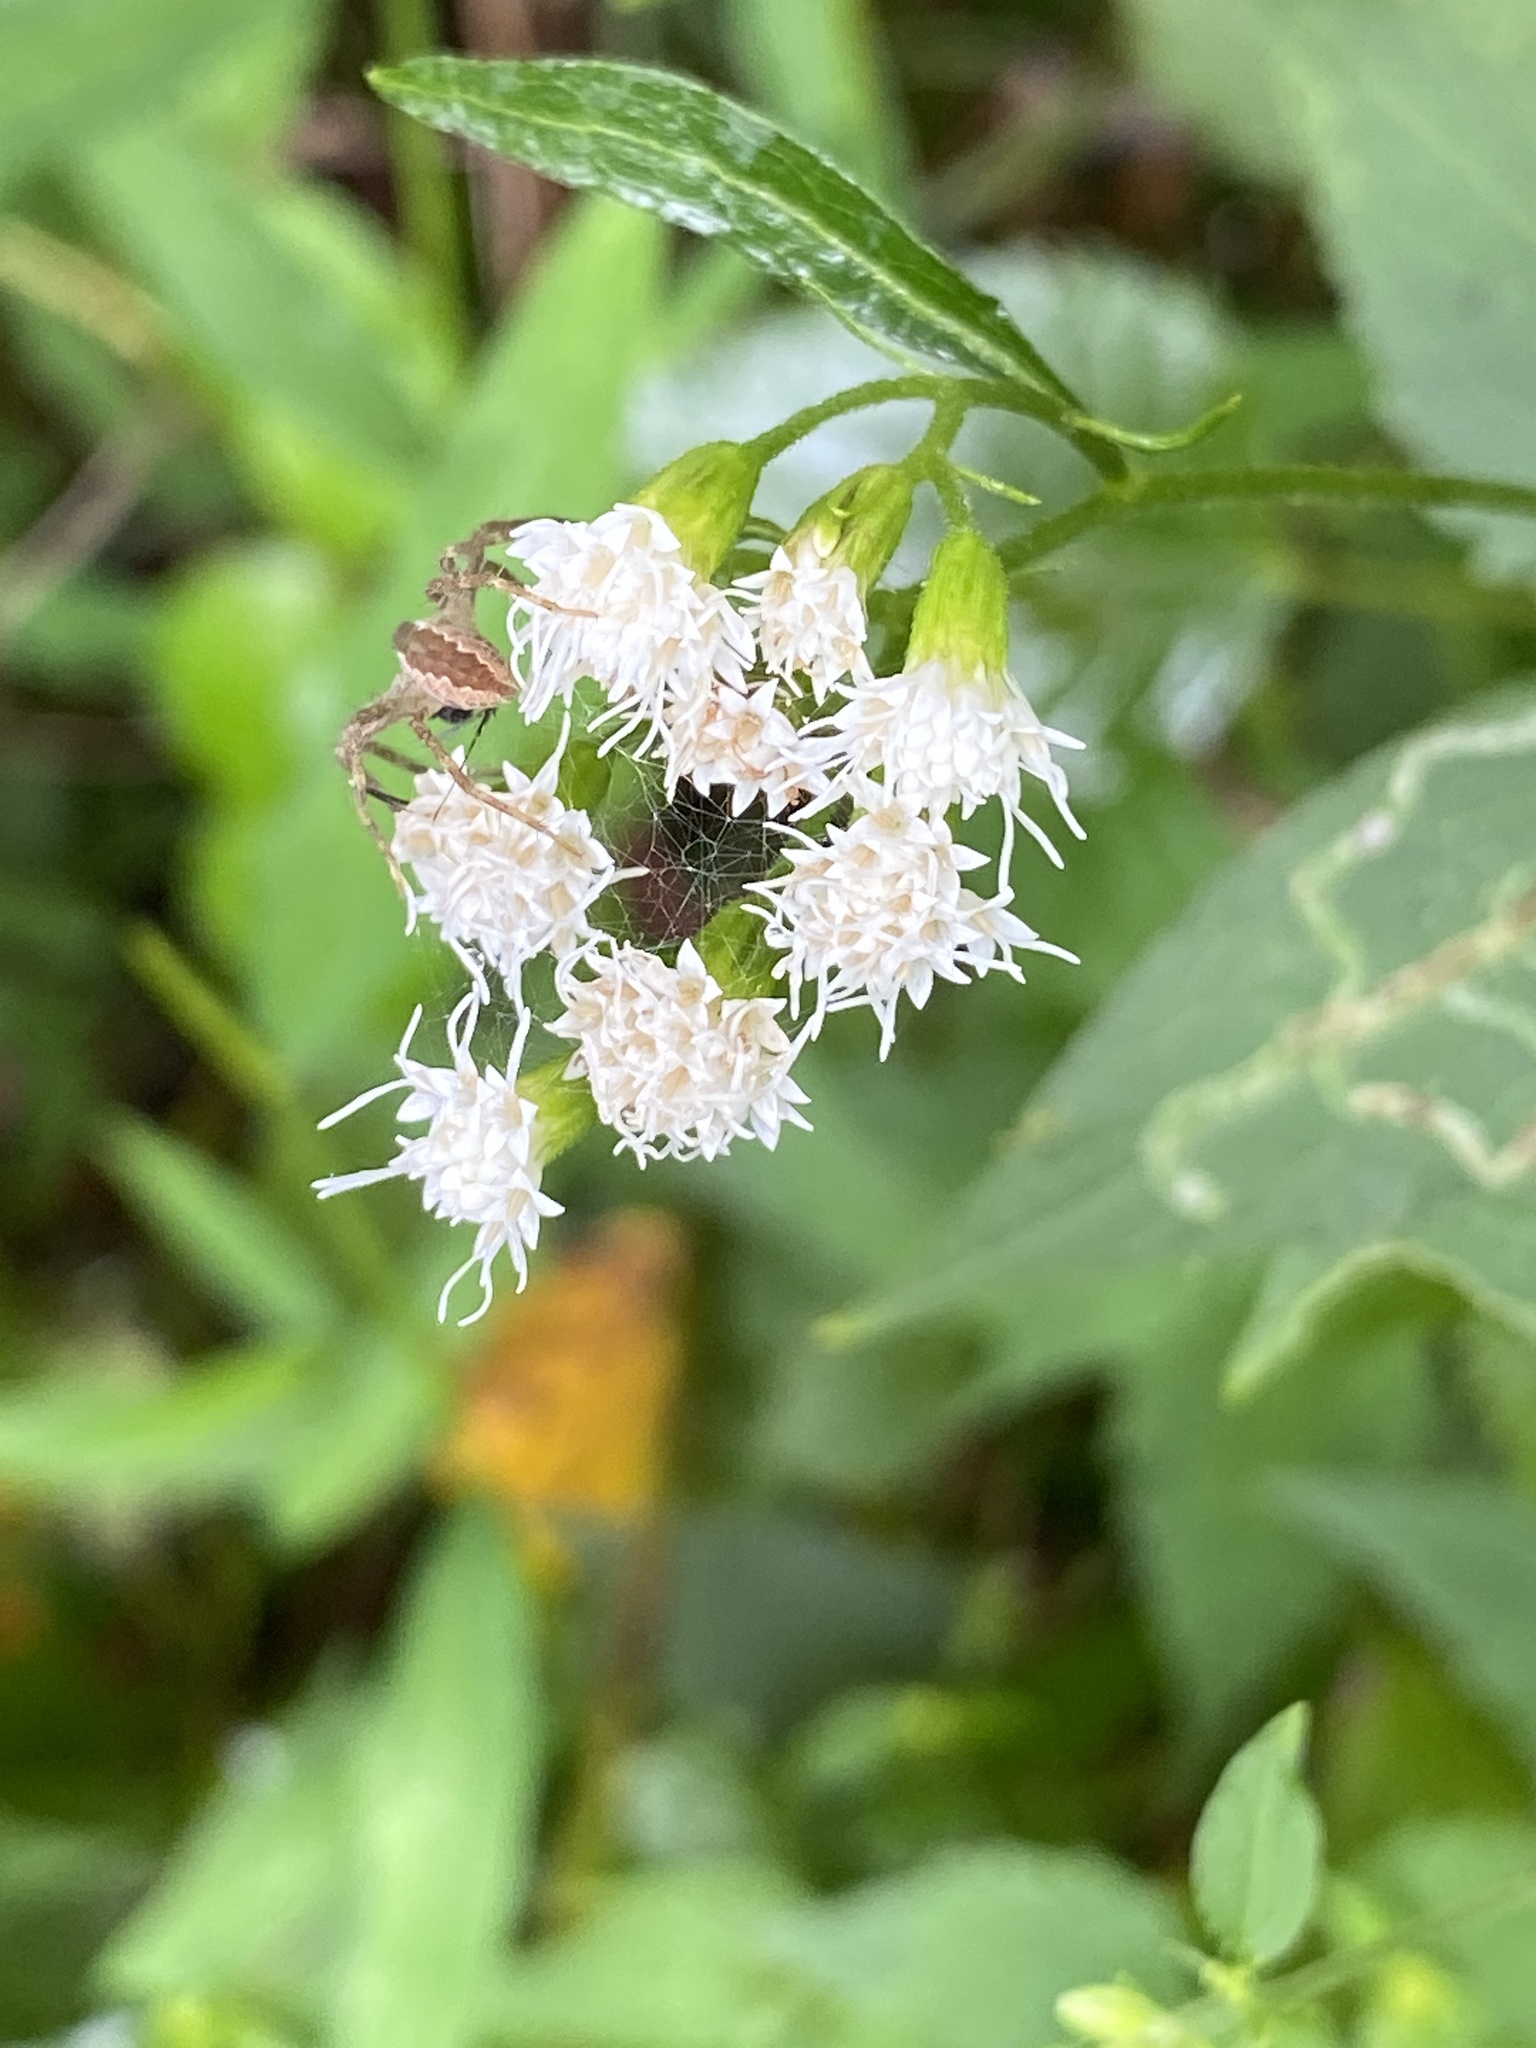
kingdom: Plantae
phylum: Tracheophyta
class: Magnoliopsida
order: Asterales
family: Asteraceae
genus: Ageratina
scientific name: Ageratina altissima
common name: White snakeroot
